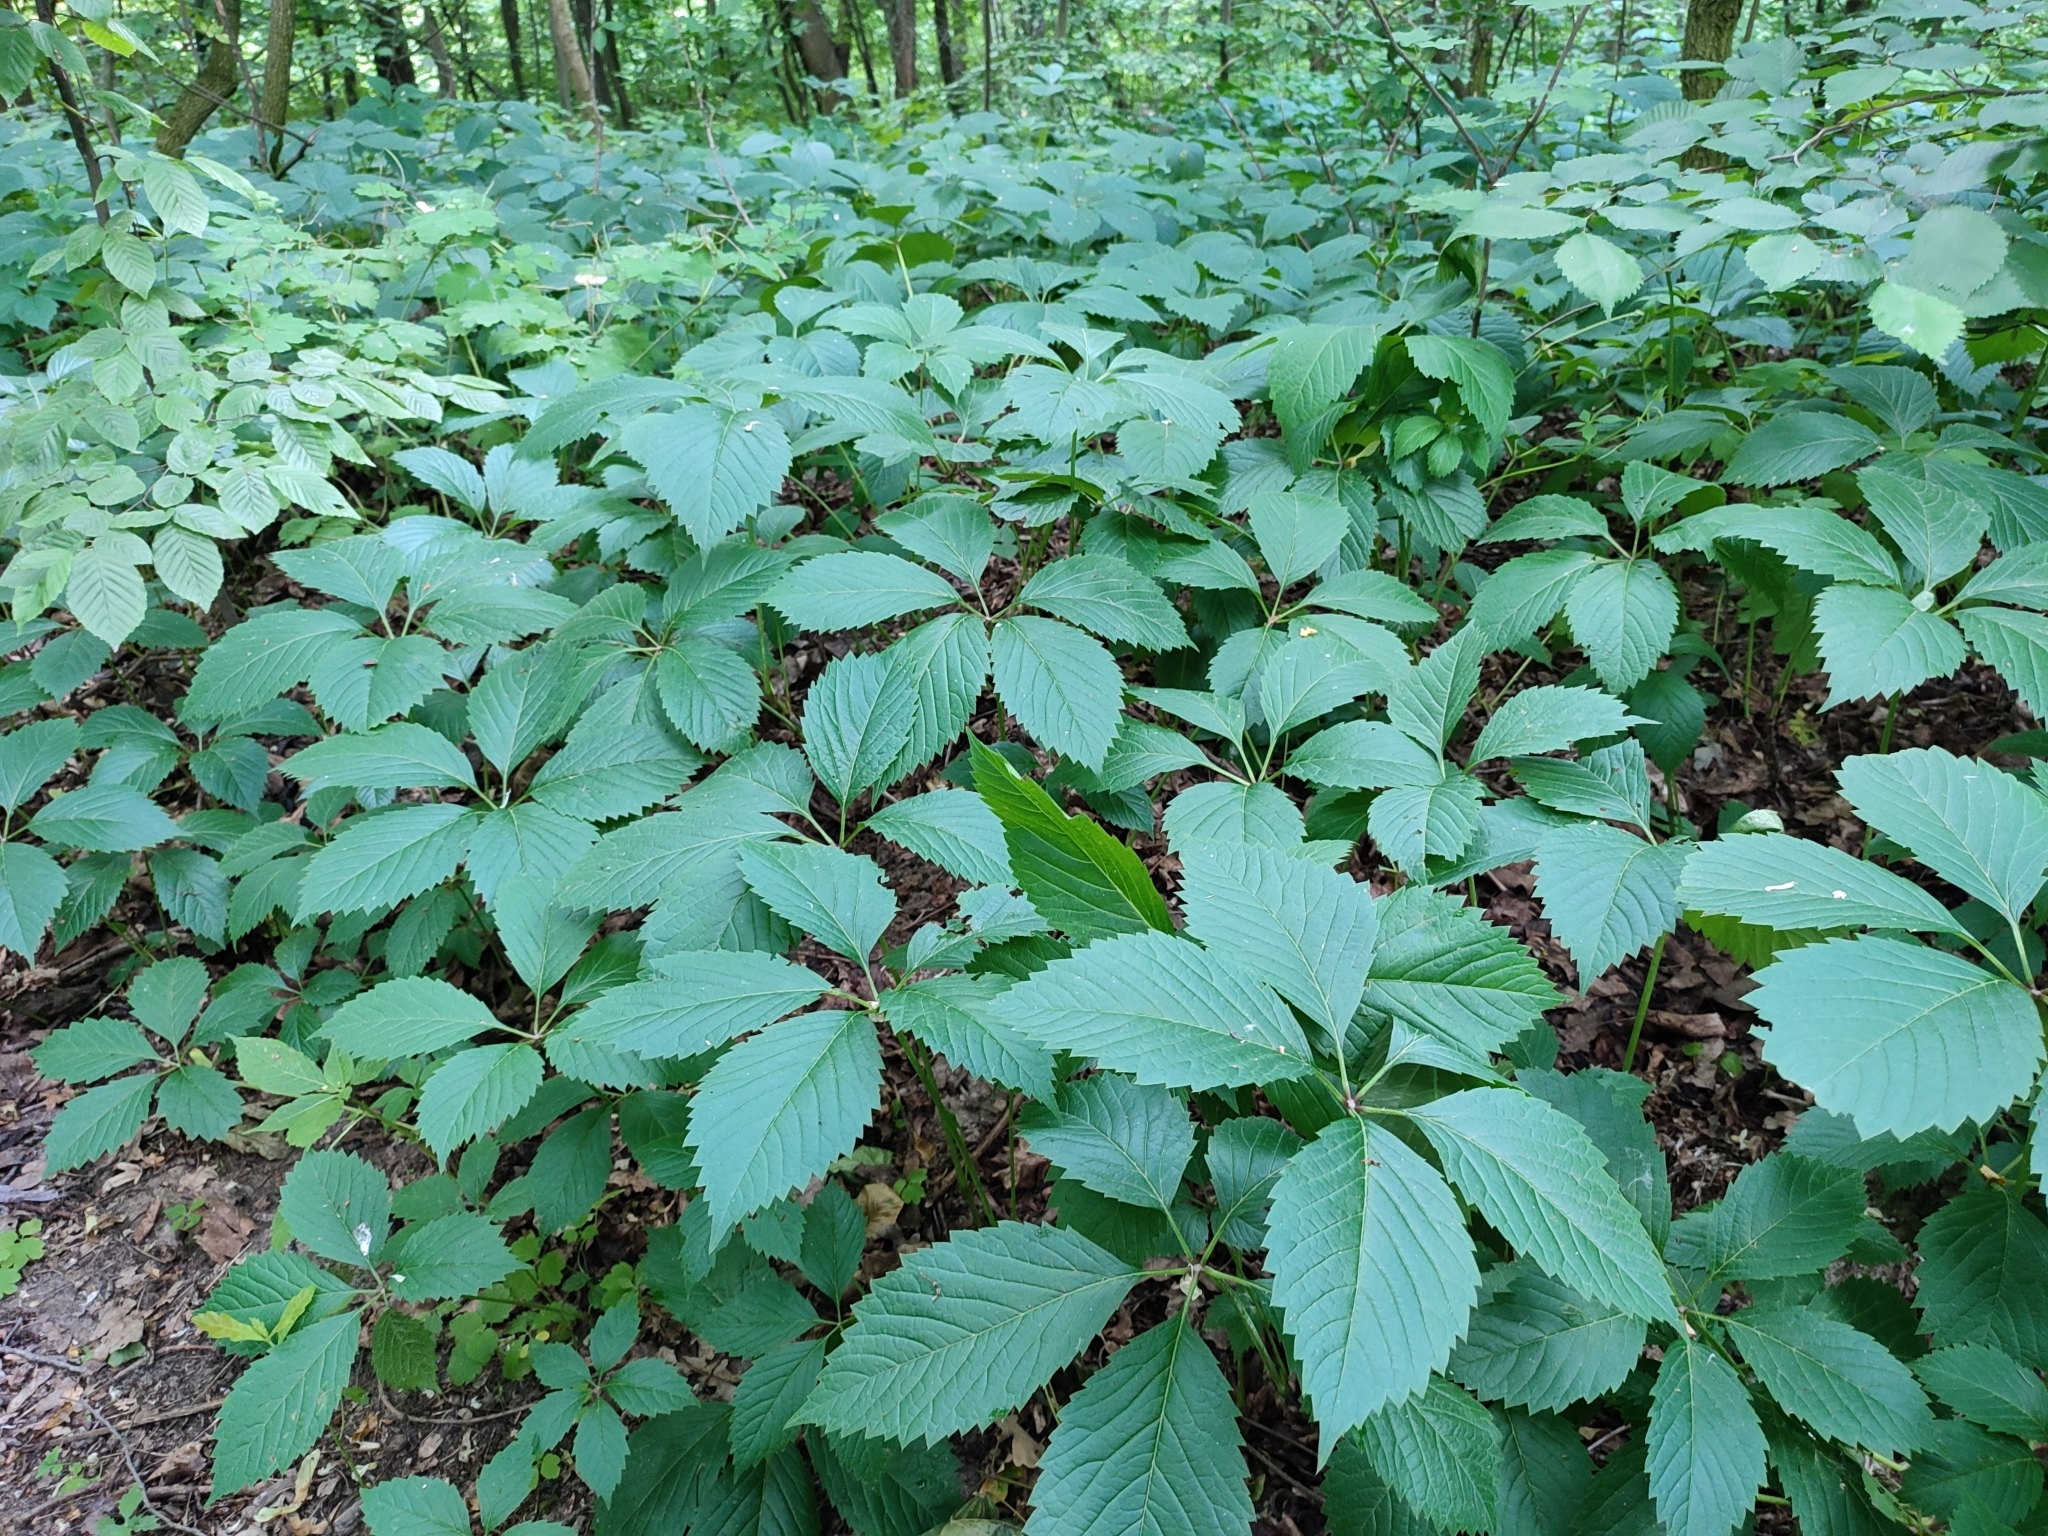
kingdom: Plantae
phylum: Tracheophyta
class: Magnoliopsida
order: Vitales
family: Vitaceae
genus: Parthenocissus
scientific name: Parthenocissus inserta
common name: False virginia-creeper
